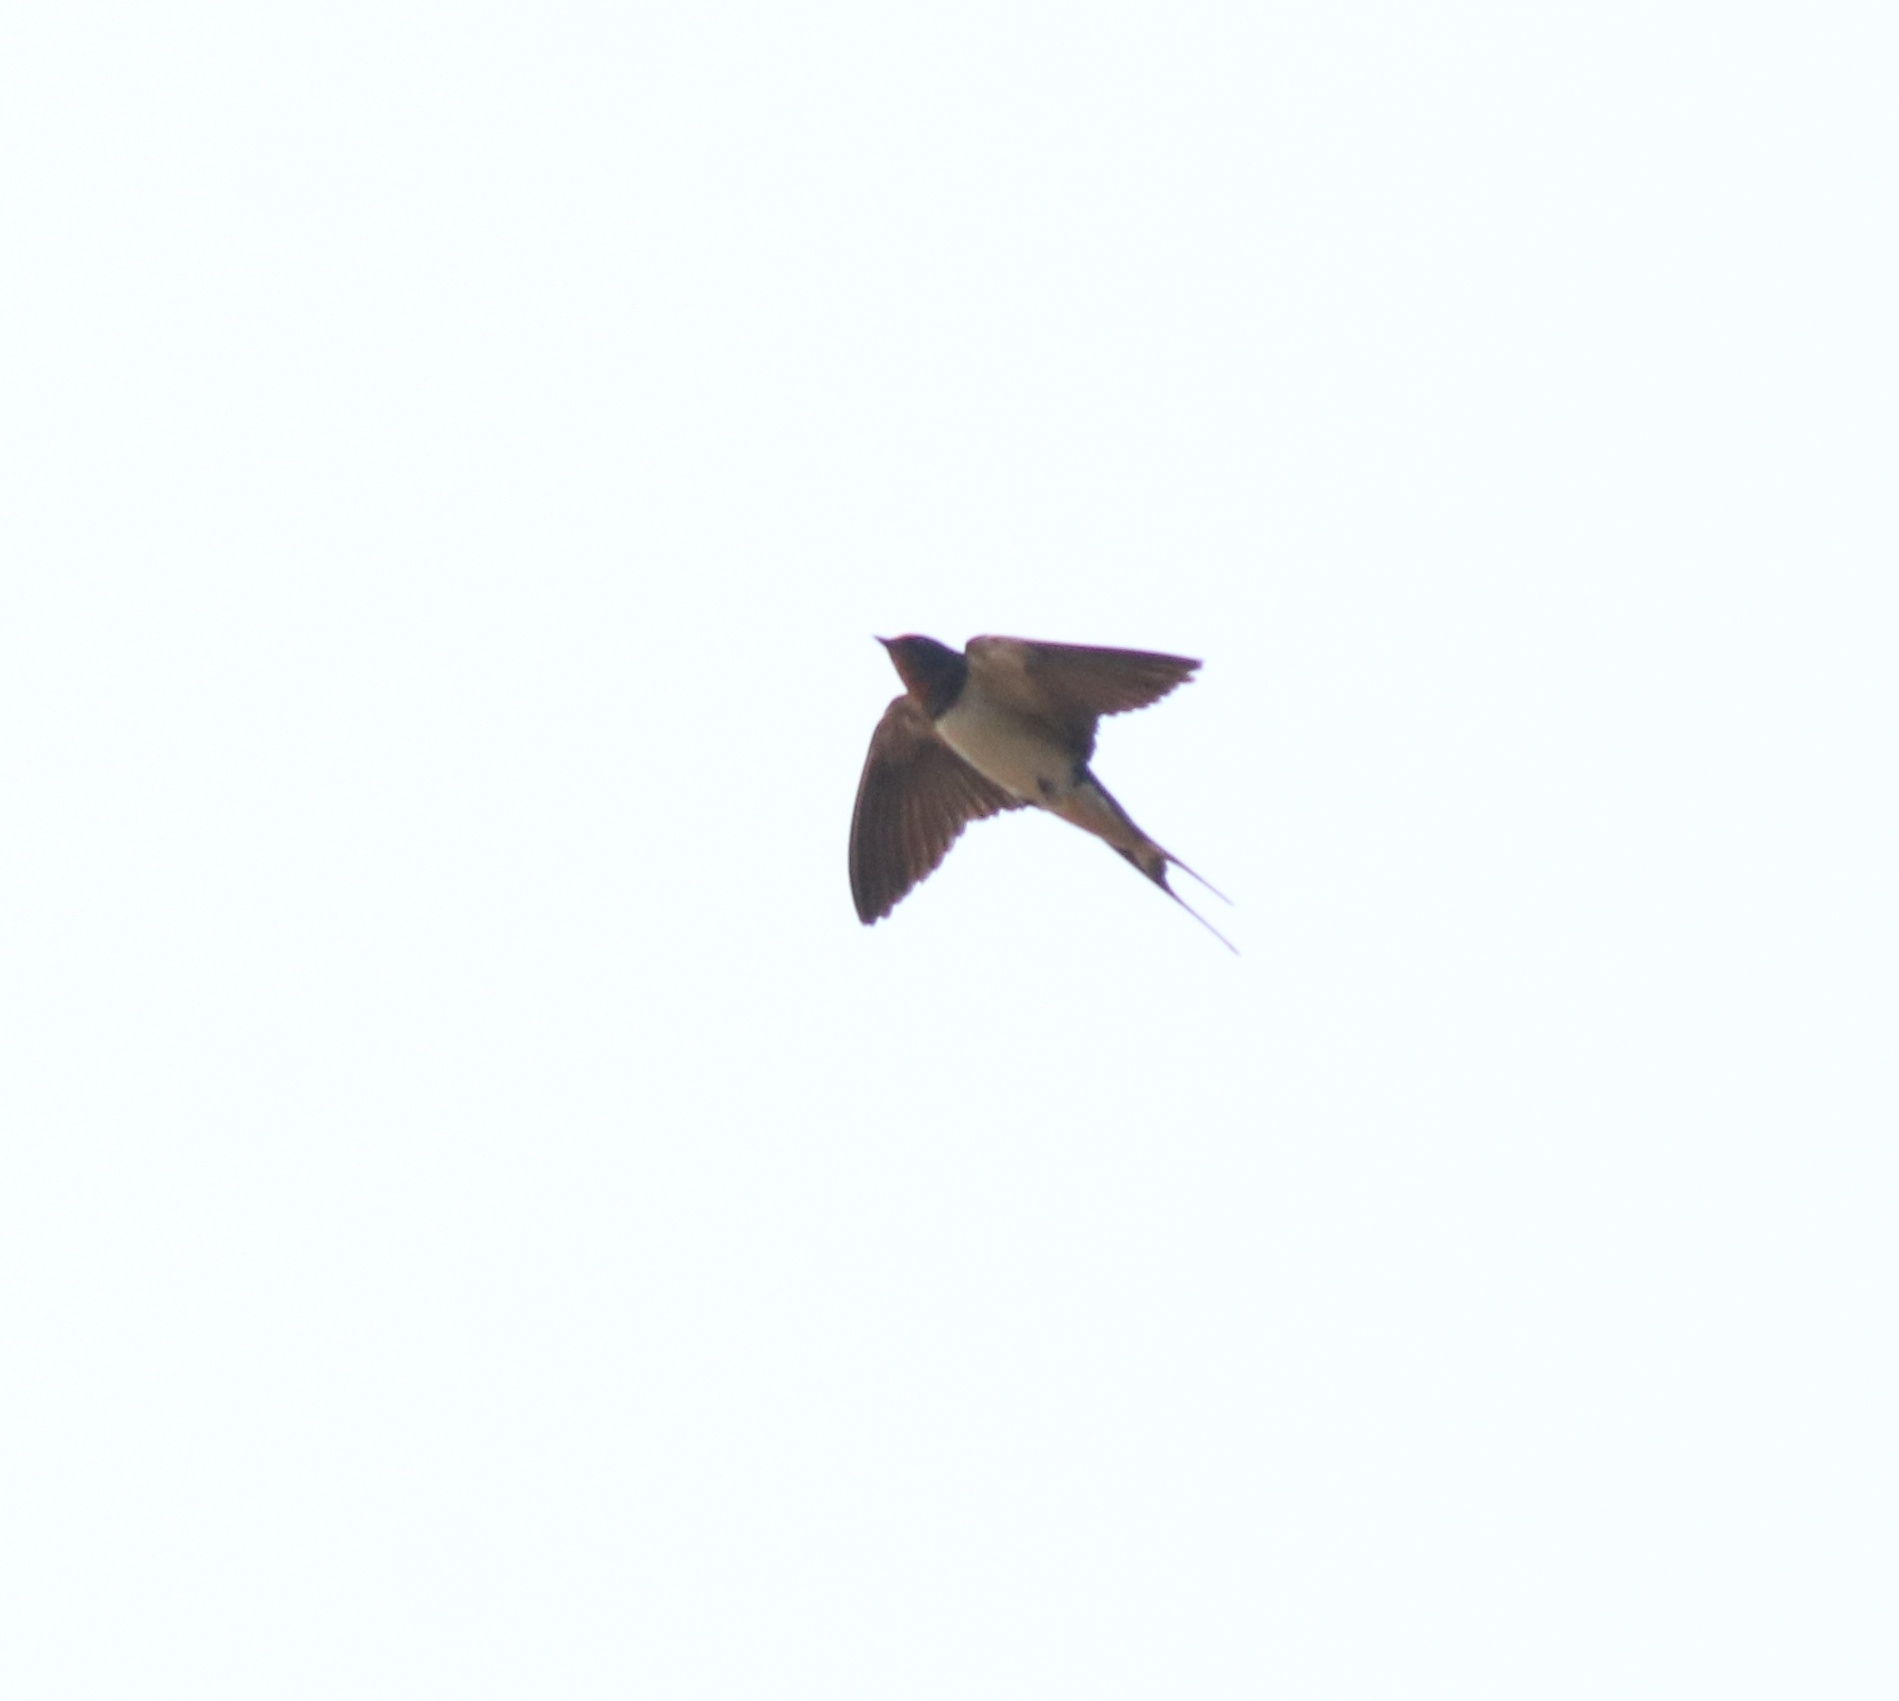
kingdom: Animalia
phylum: Chordata
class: Aves
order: Passeriformes
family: Hirundinidae
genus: Hirundo
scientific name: Hirundo rustica
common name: Barn swallow
